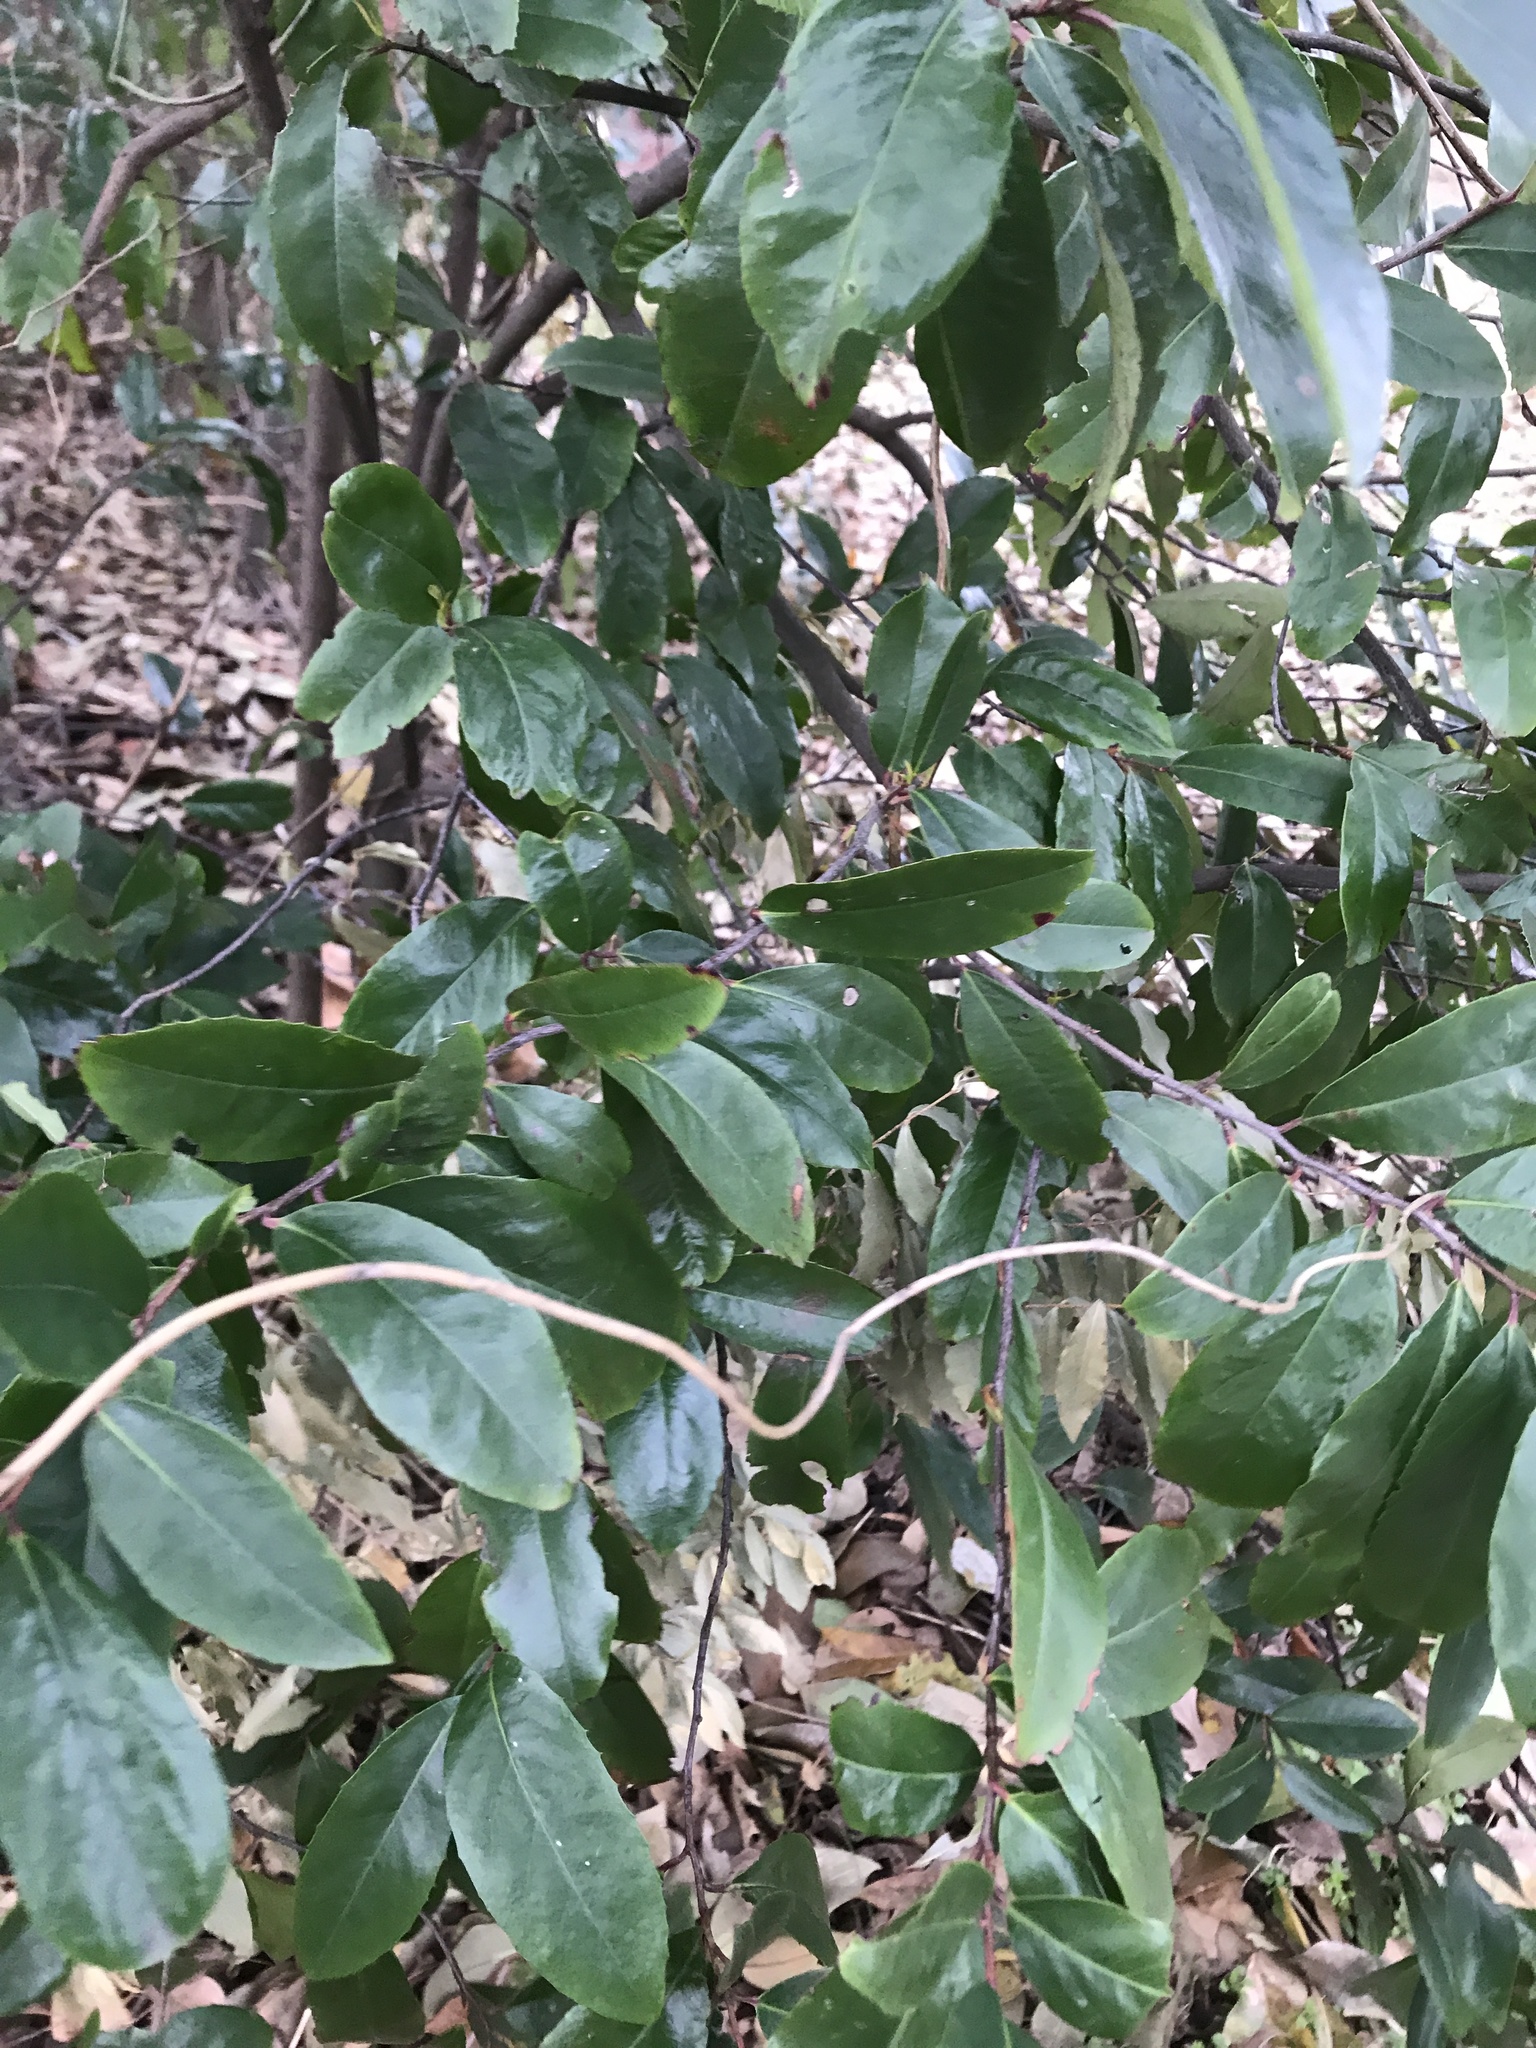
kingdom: Plantae
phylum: Tracheophyta
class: Magnoliopsida
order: Rosales
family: Rosaceae
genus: Prunus
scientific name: Prunus caroliniana
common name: Carolina laurel cherry
